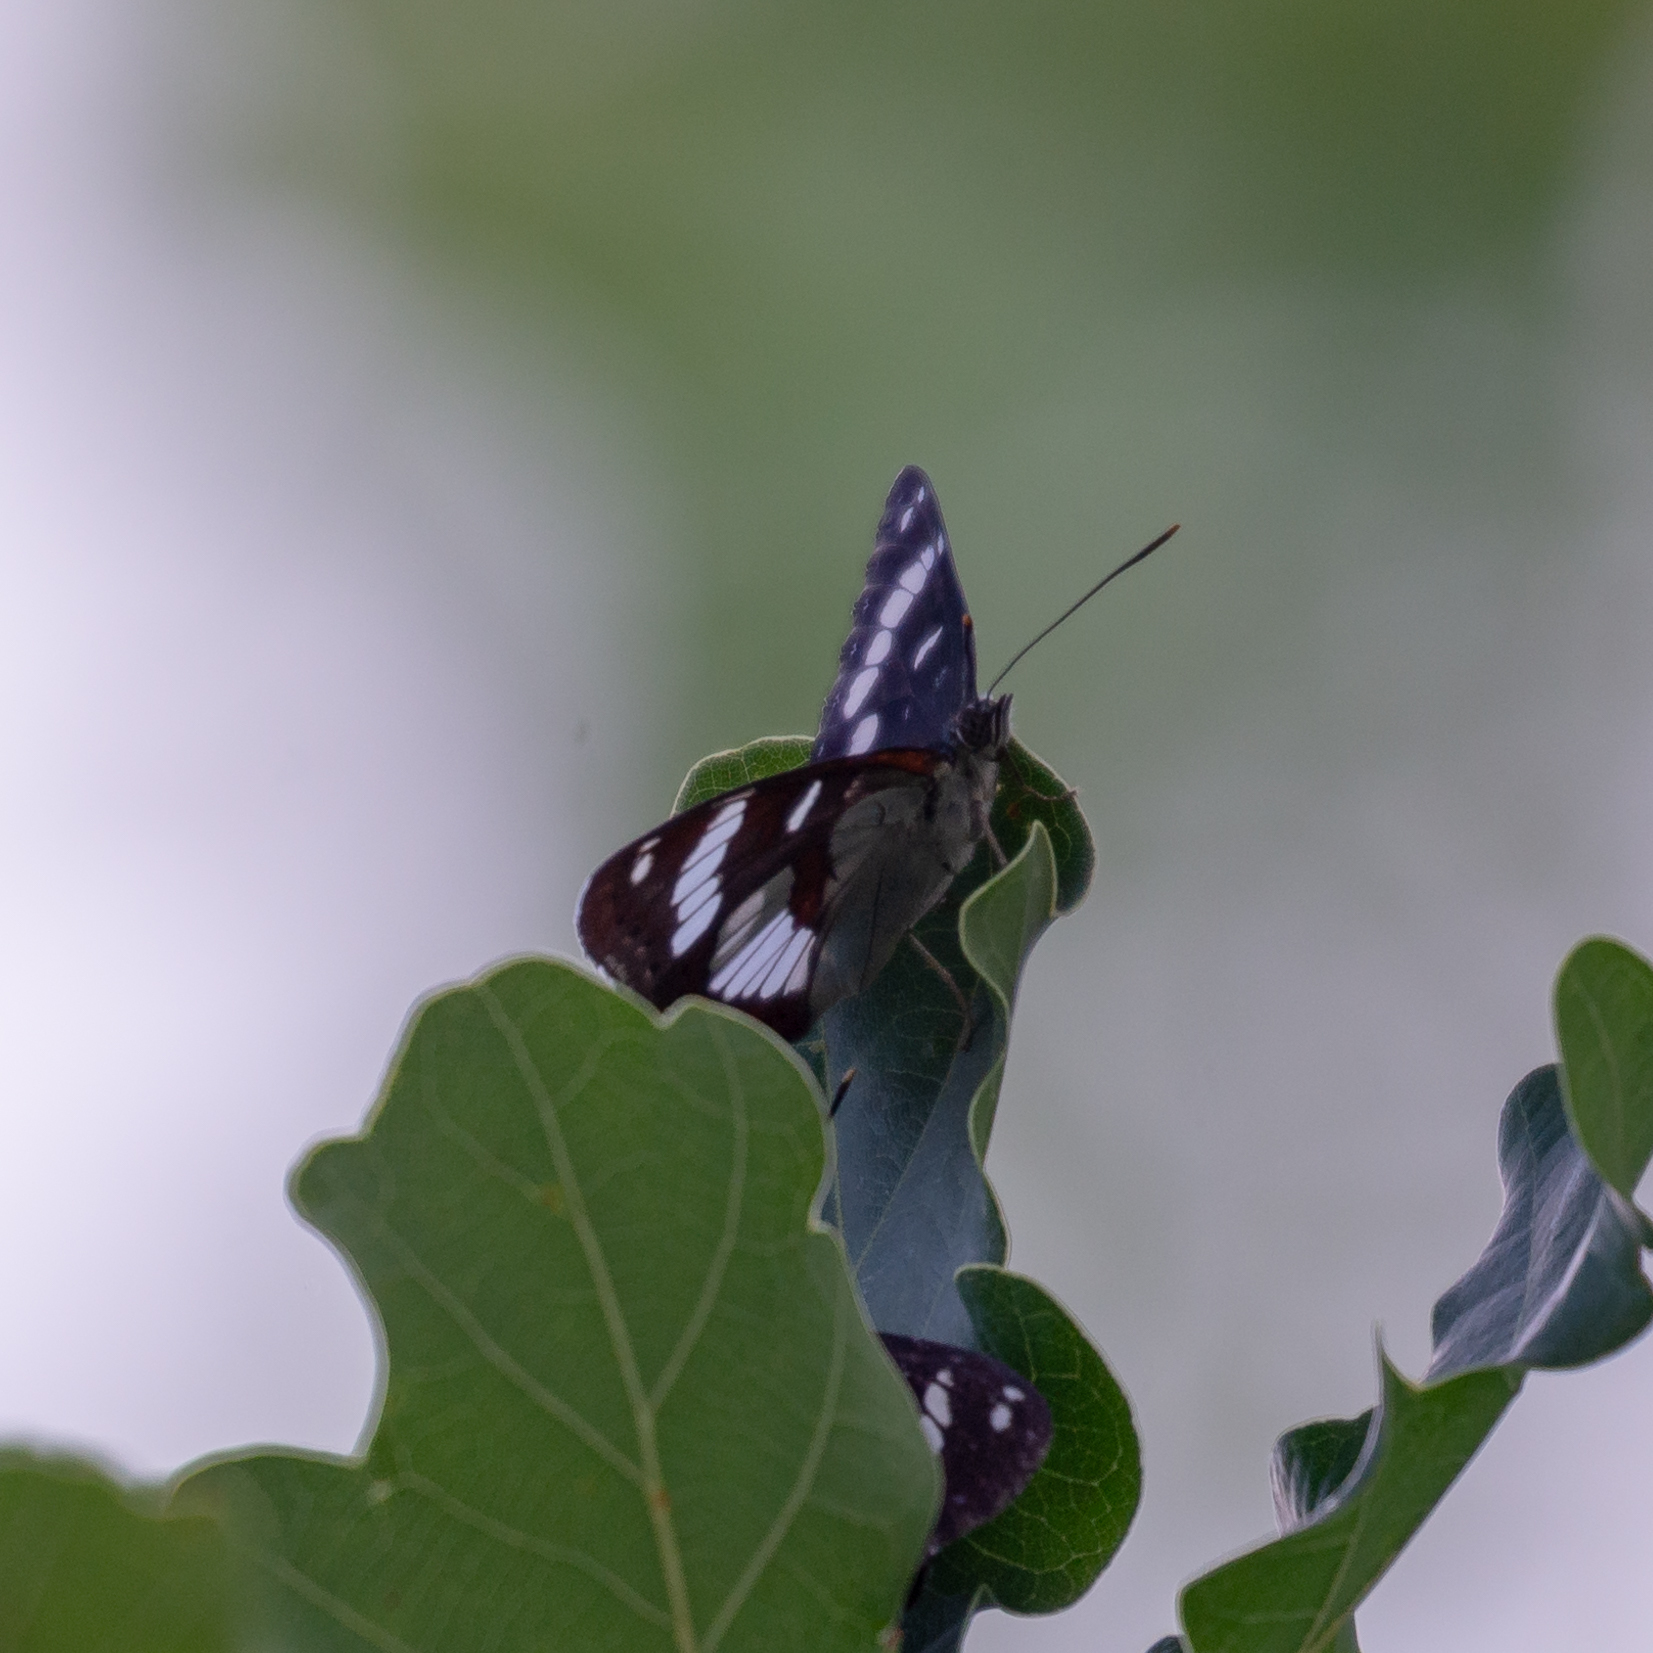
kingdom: Animalia
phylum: Arthropoda
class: Insecta
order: Lepidoptera
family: Nymphalidae
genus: Limenitis
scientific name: Limenitis reducta
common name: Southern white admiral
